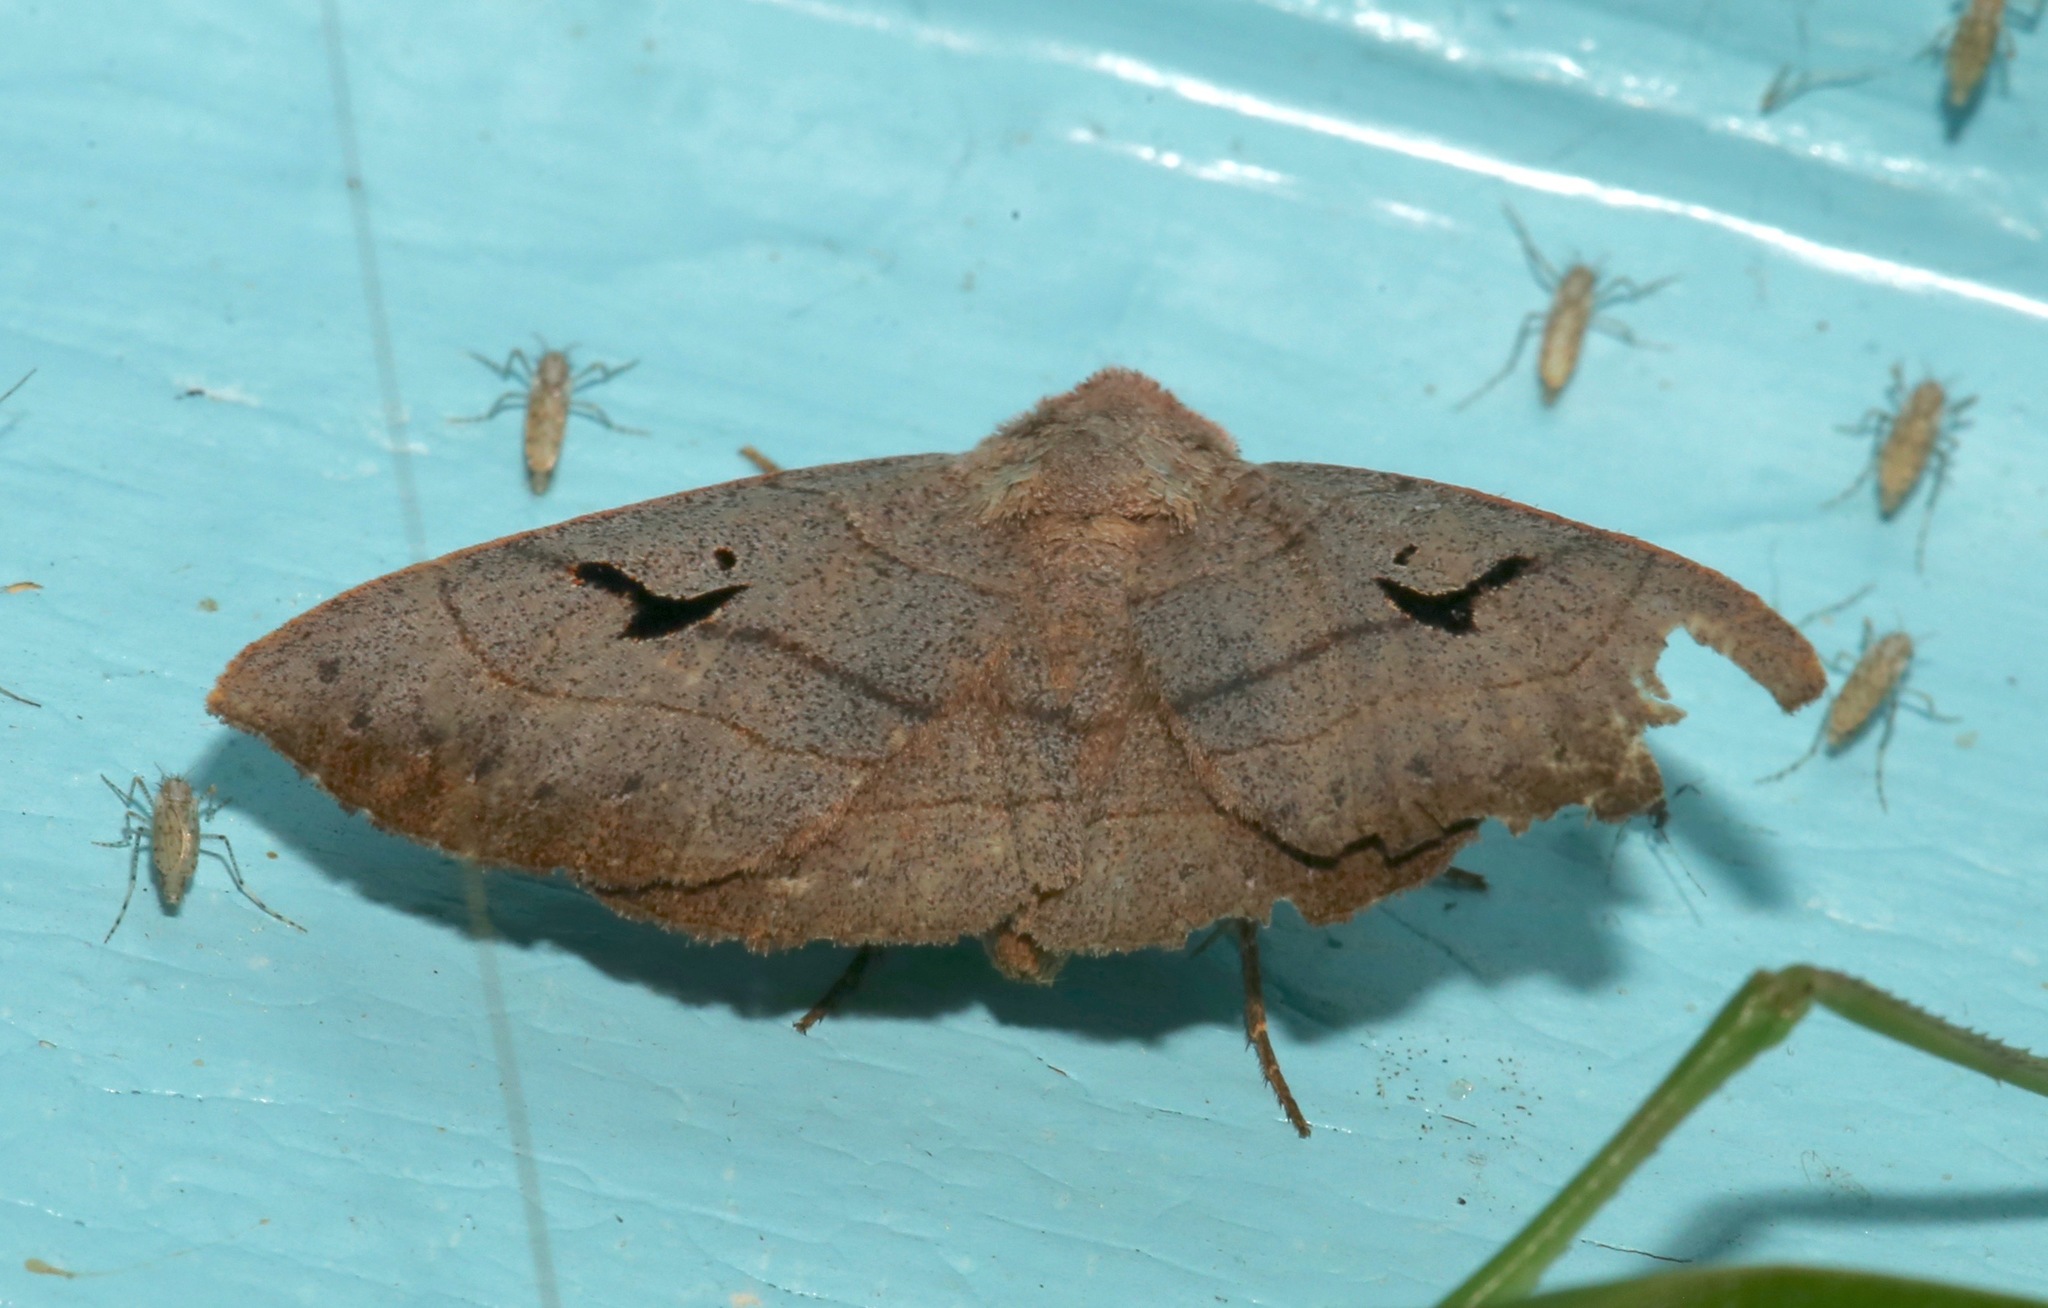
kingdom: Animalia
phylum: Arthropoda
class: Insecta
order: Lepidoptera
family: Erebidae
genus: Panopoda
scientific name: Panopoda carneicosta
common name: Brown panopoda moth
